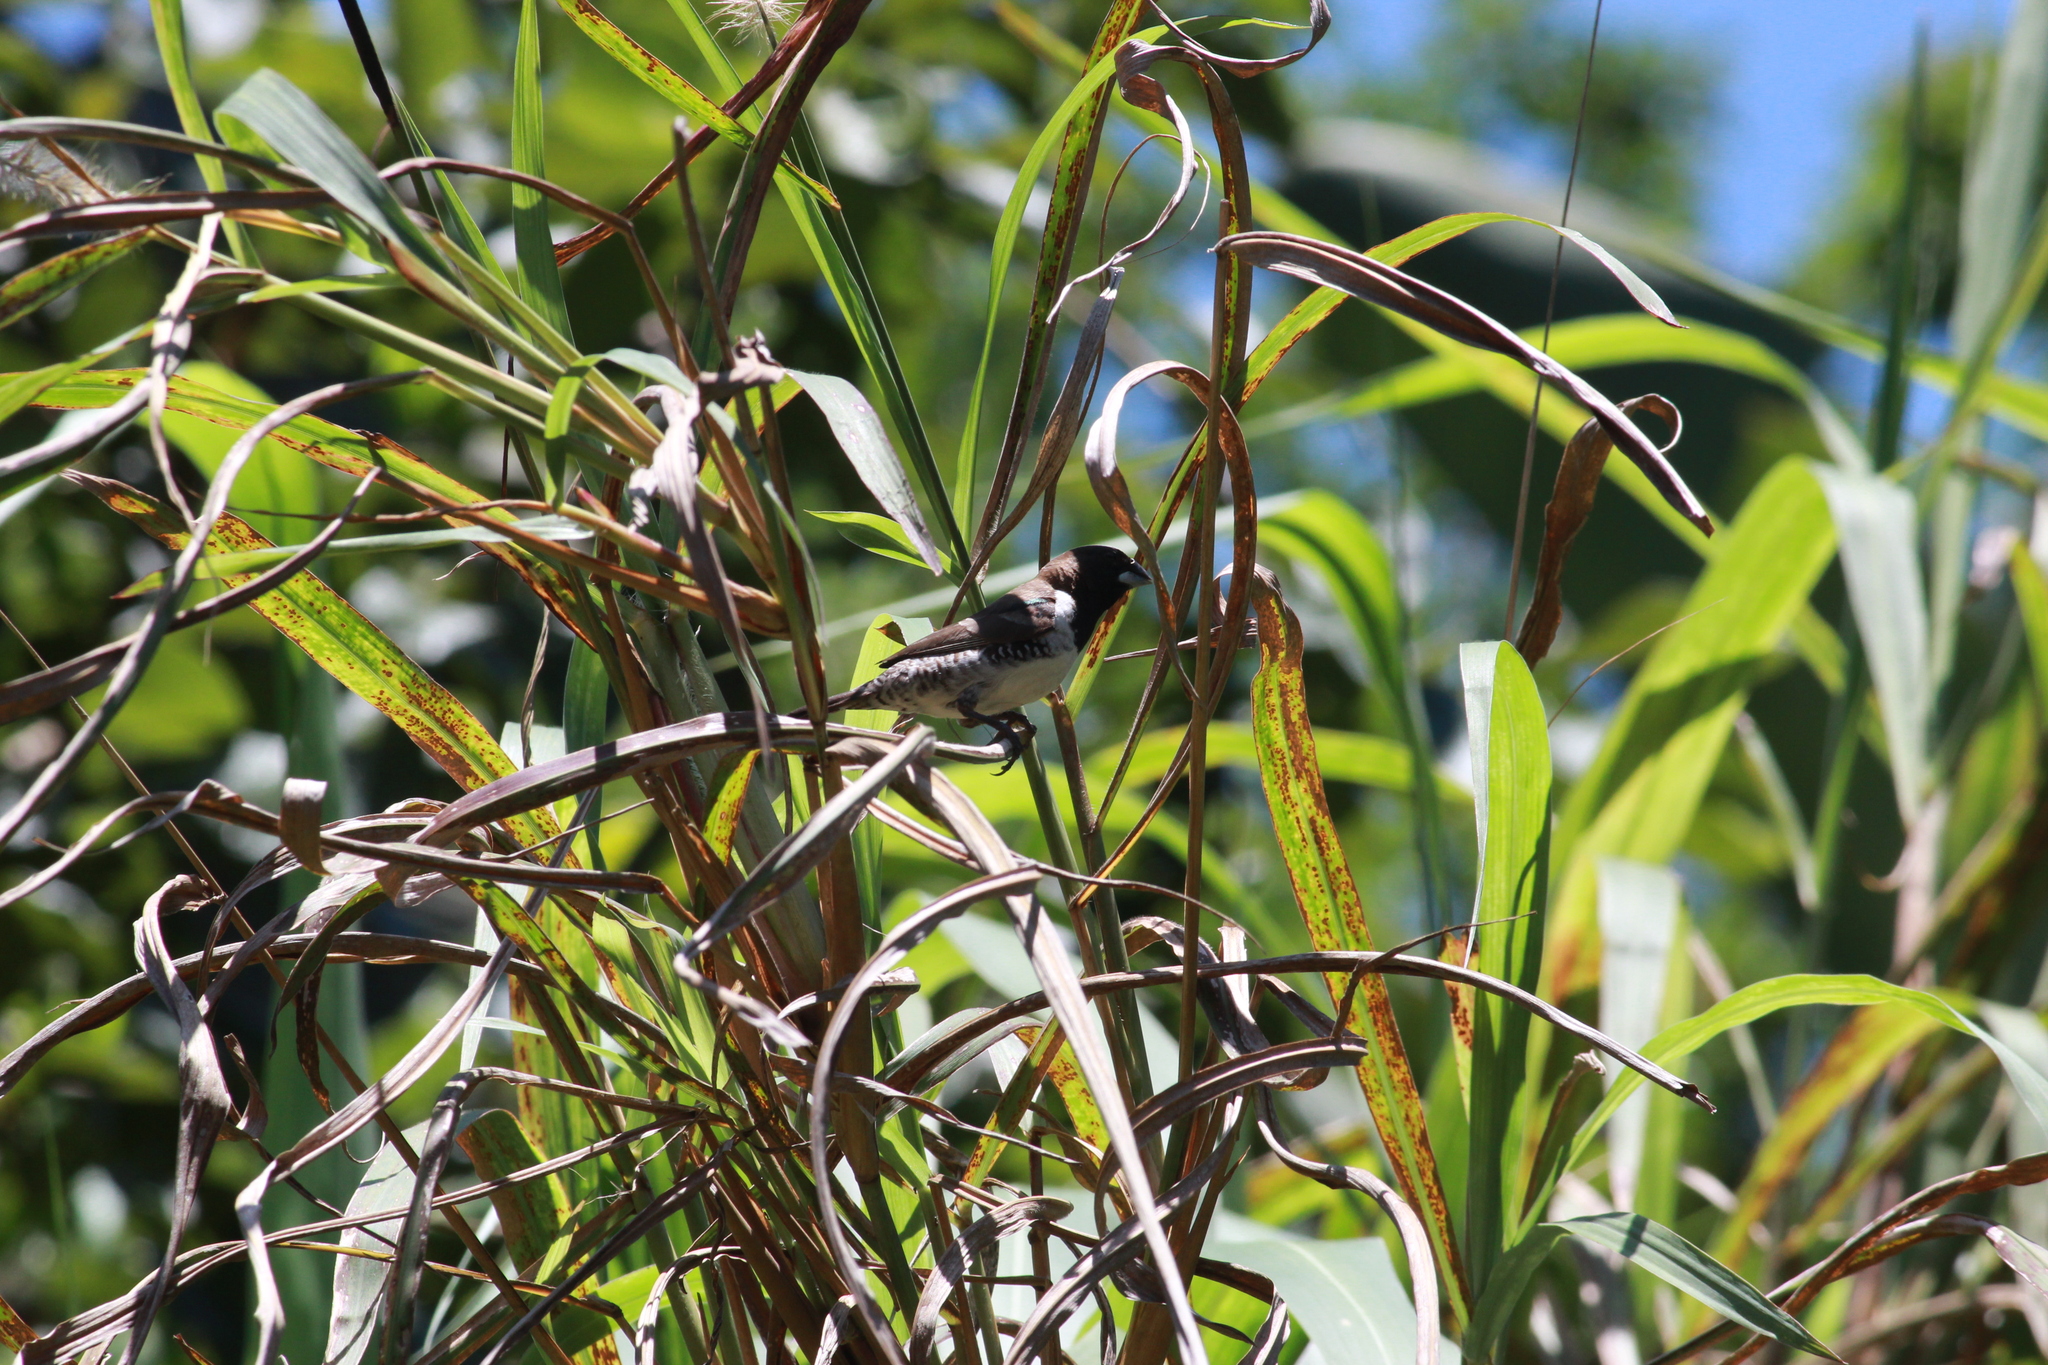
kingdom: Animalia
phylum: Chordata
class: Aves
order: Passeriformes
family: Estrildidae
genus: Lonchura
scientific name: Lonchura cucullata
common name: Bronze mannikin
